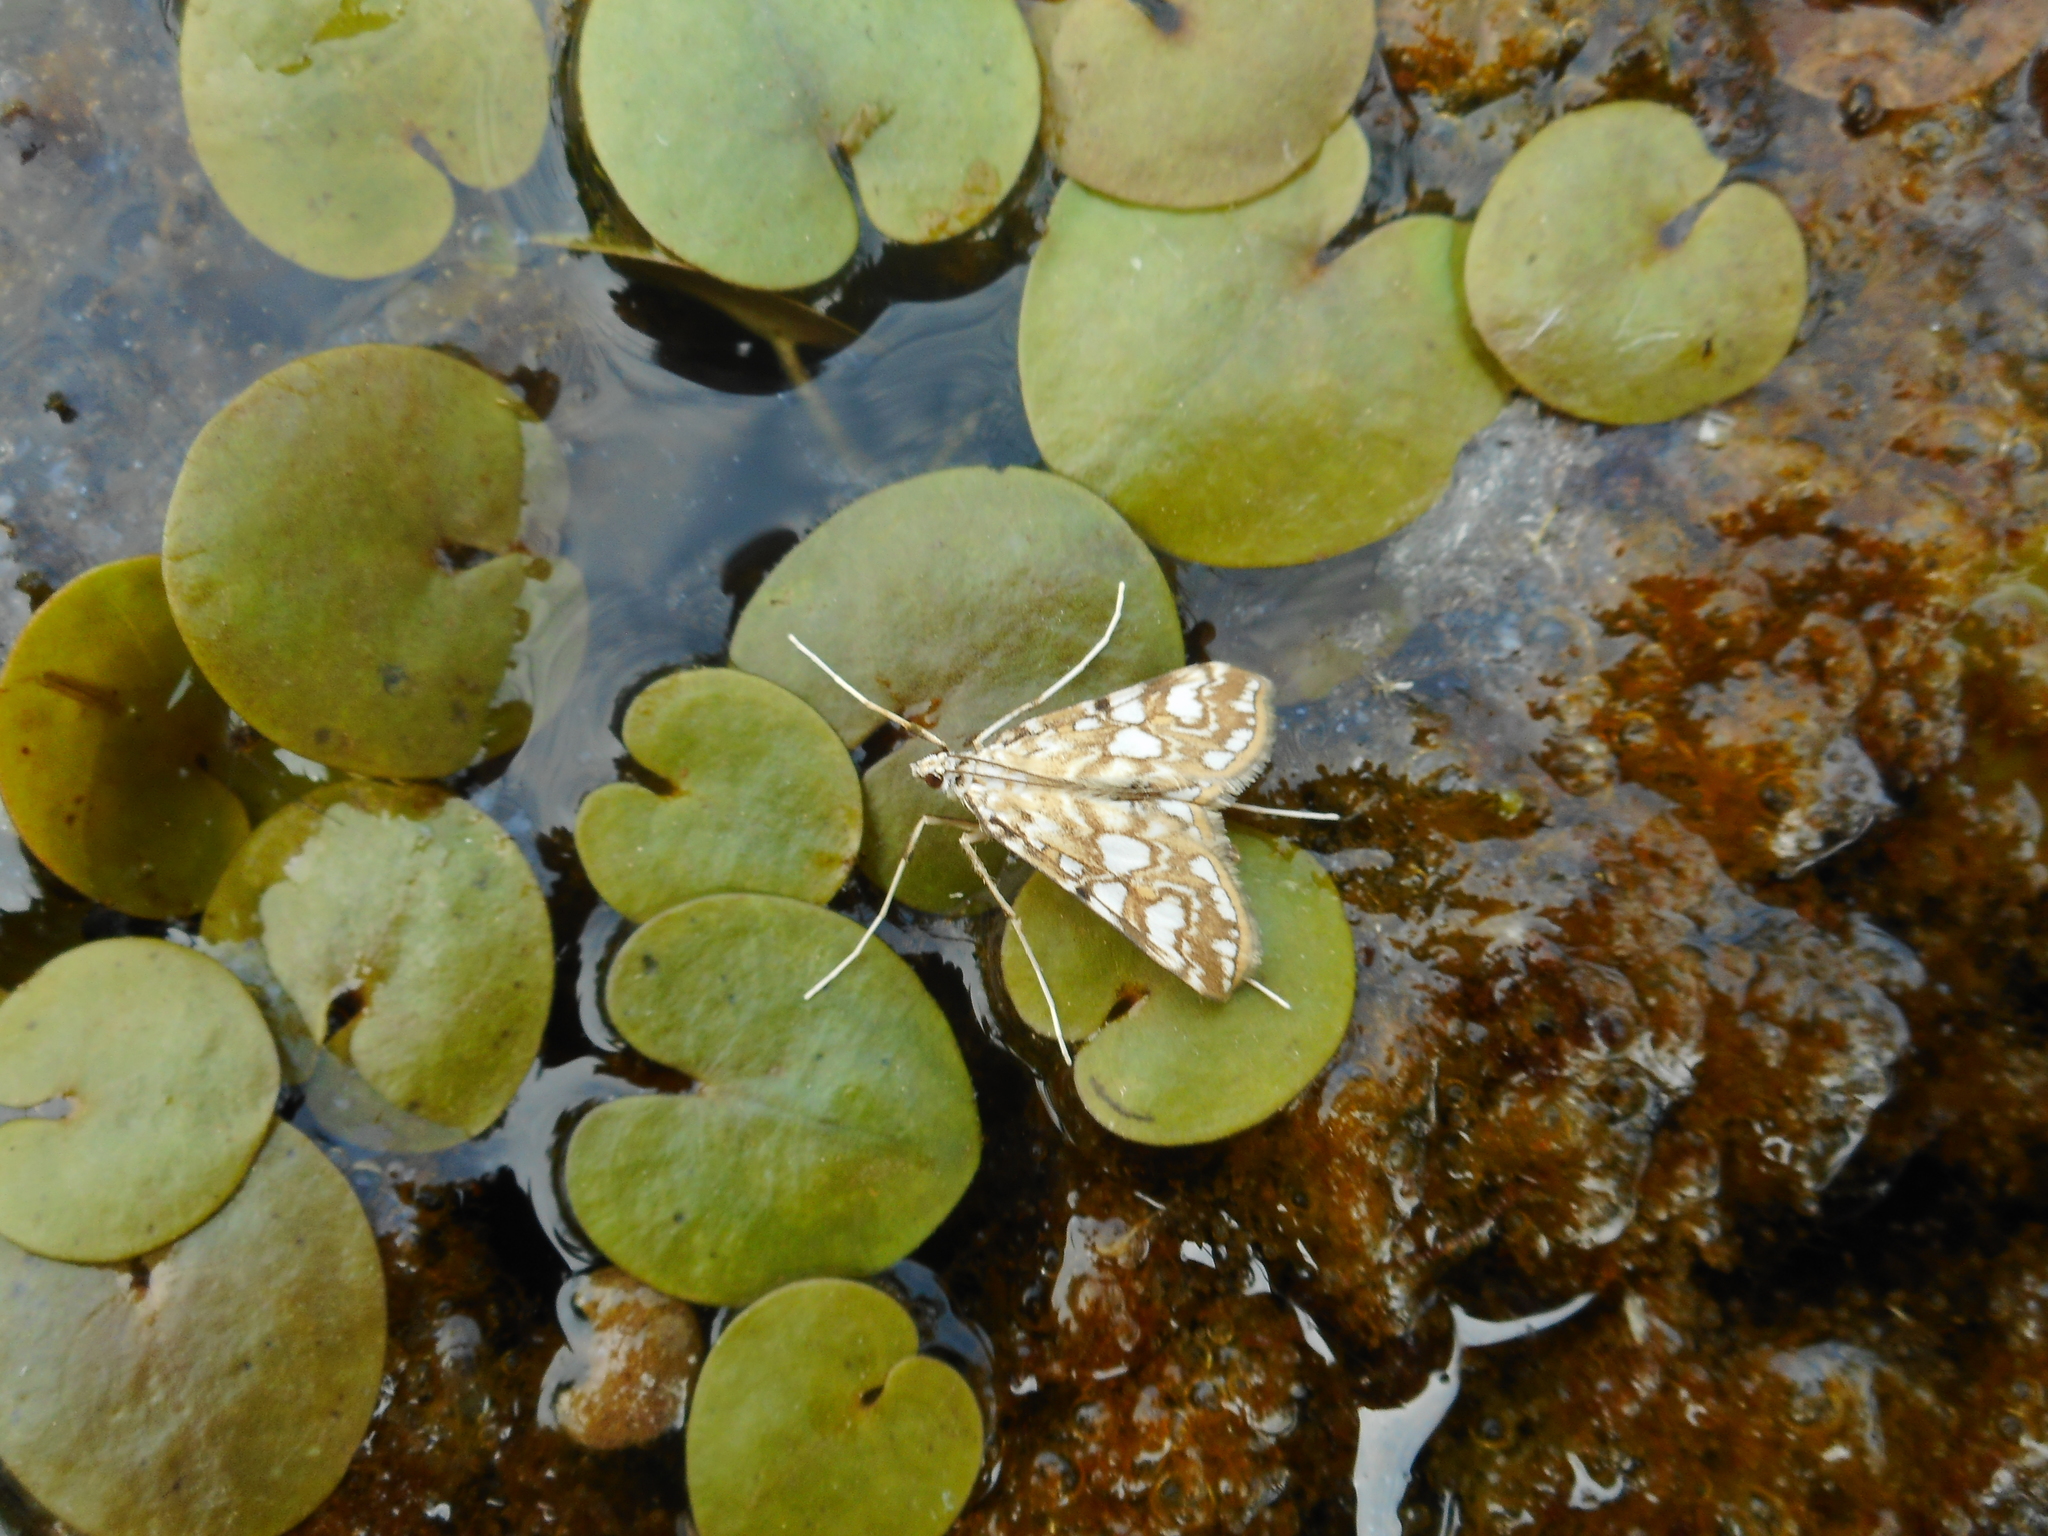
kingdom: Animalia
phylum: Arthropoda
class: Insecta
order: Lepidoptera
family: Crambidae
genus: Elophila
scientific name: Elophila nymphaeata
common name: Brown china-mark
